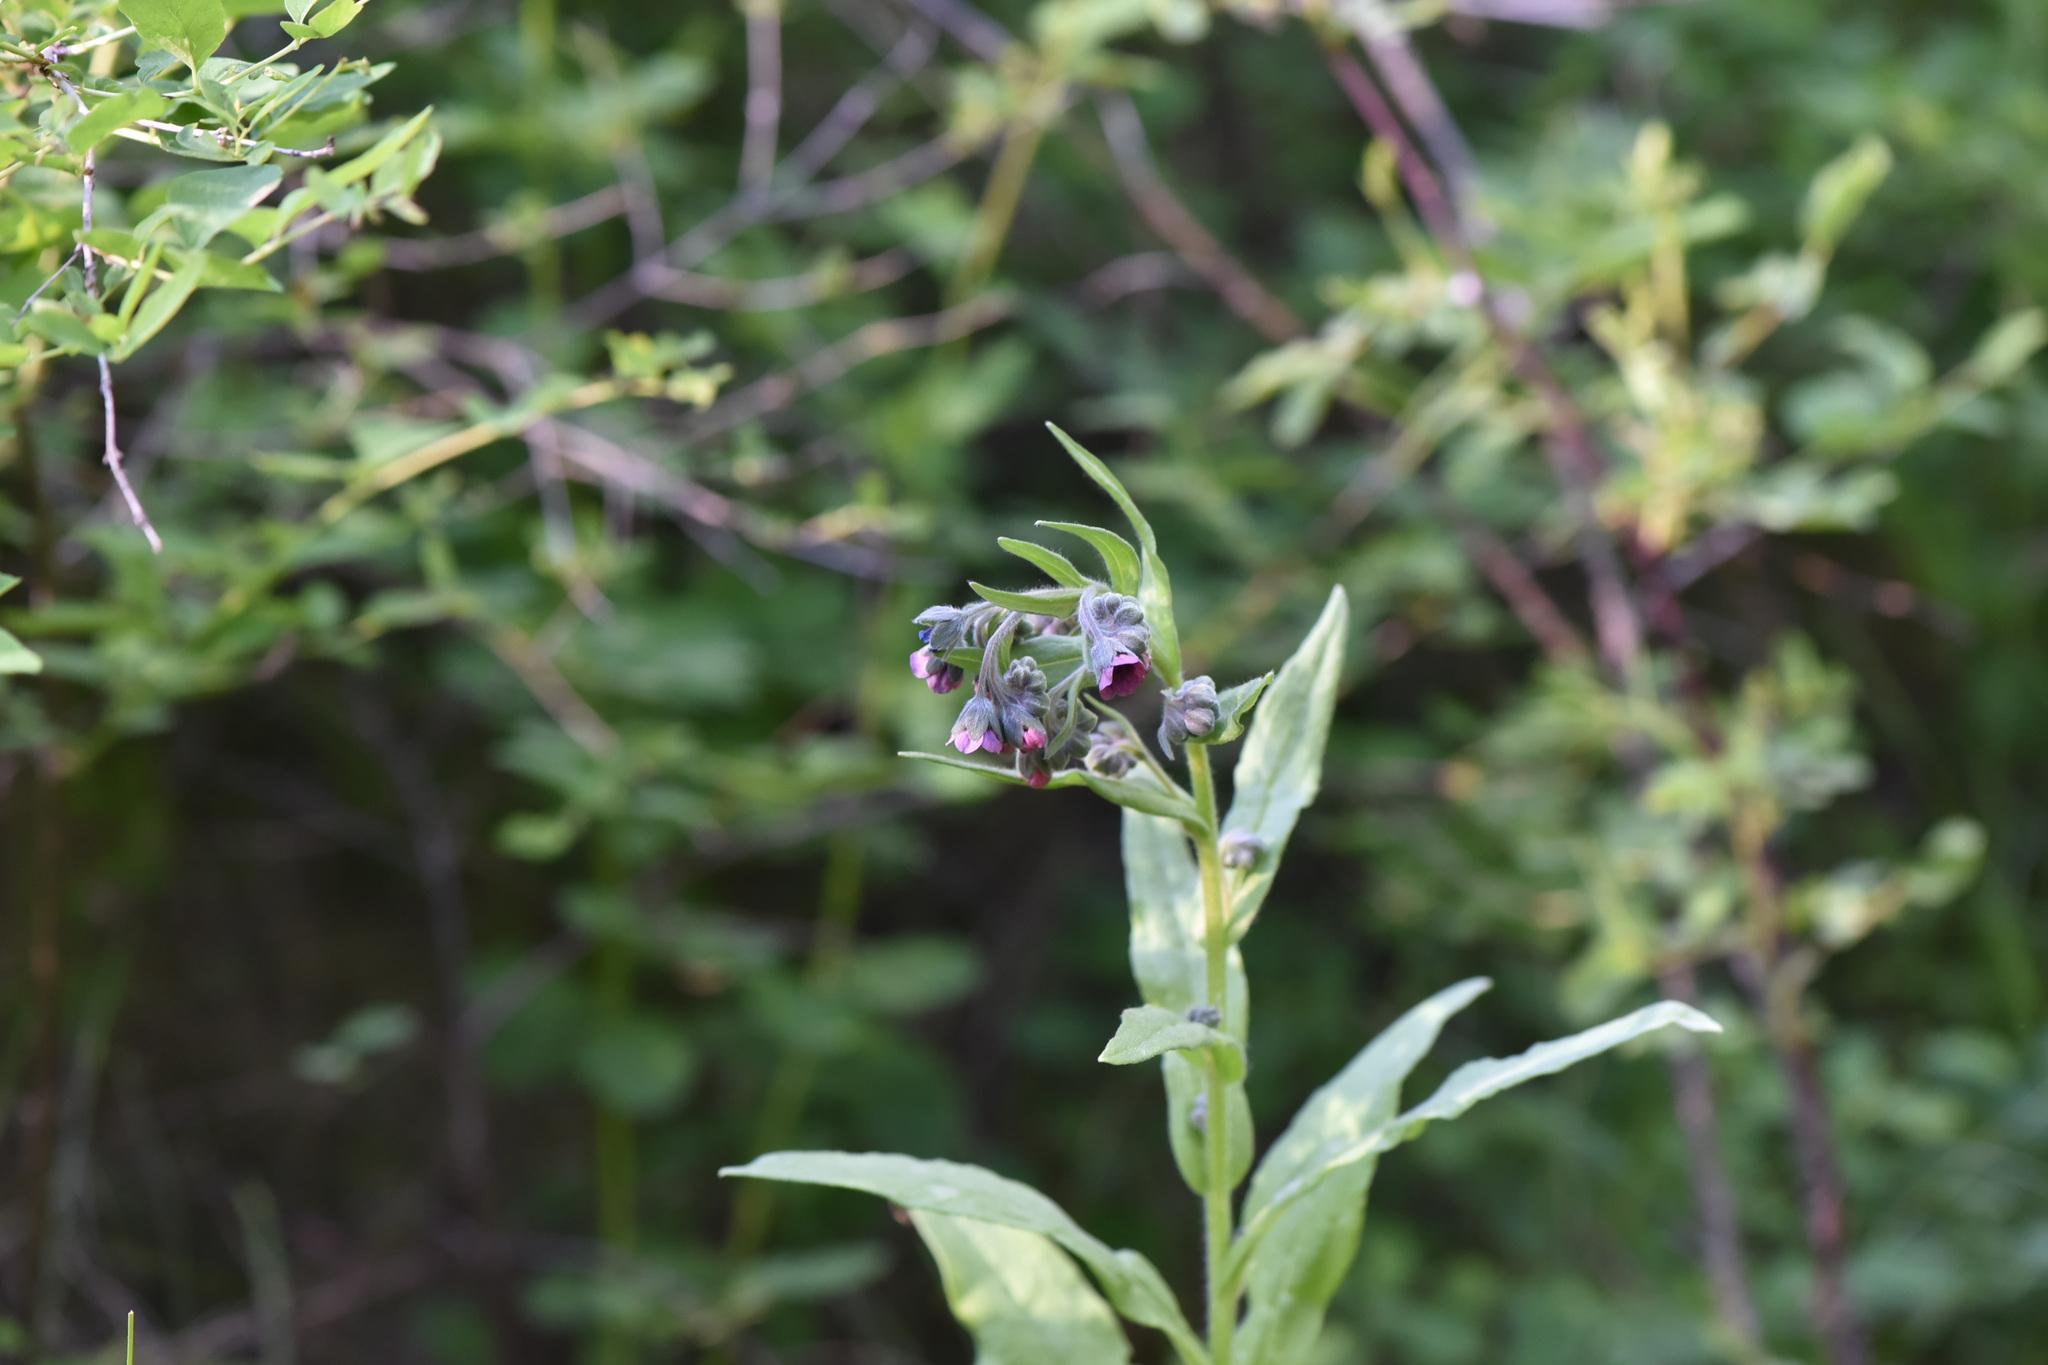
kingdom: Plantae
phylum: Tracheophyta
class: Magnoliopsida
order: Boraginales
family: Boraginaceae
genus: Cynoglossum
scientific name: Cynoglossum officinale
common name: Hound's-tongue
